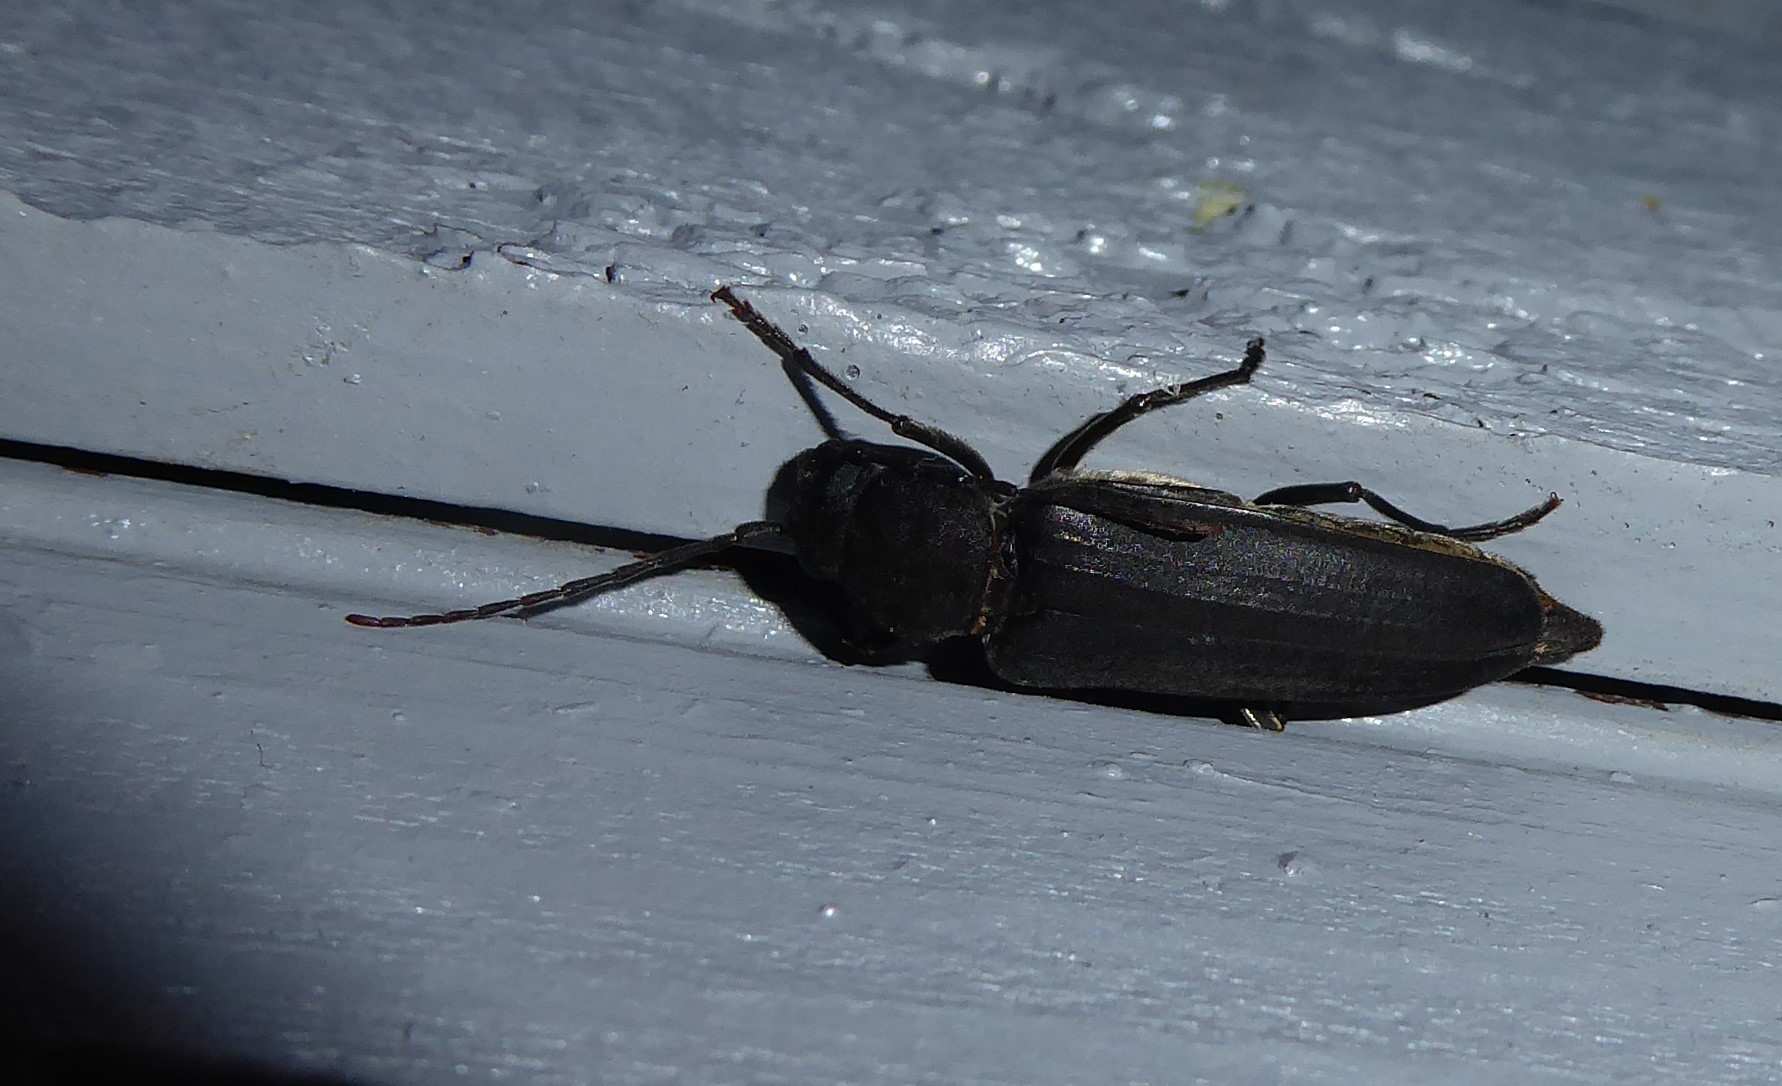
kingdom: Animalia
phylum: Arthropoda
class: Insecta
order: Coleoptera
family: Cerambycidae
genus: Arhopalus
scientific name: Arhopalus ferus
